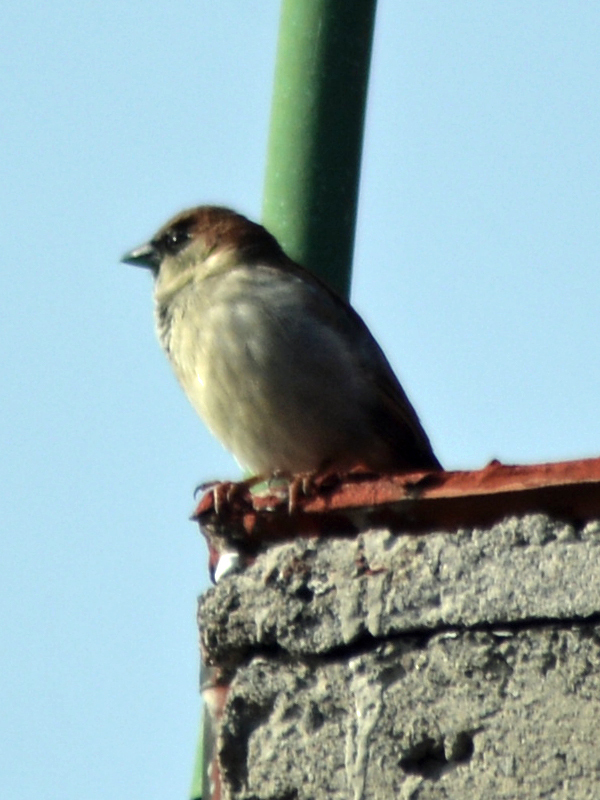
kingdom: Animalia
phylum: Chordata
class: Aves
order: Passeriformes
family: Passeridae
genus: Passer
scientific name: Passer domesticus
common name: House sparrow
